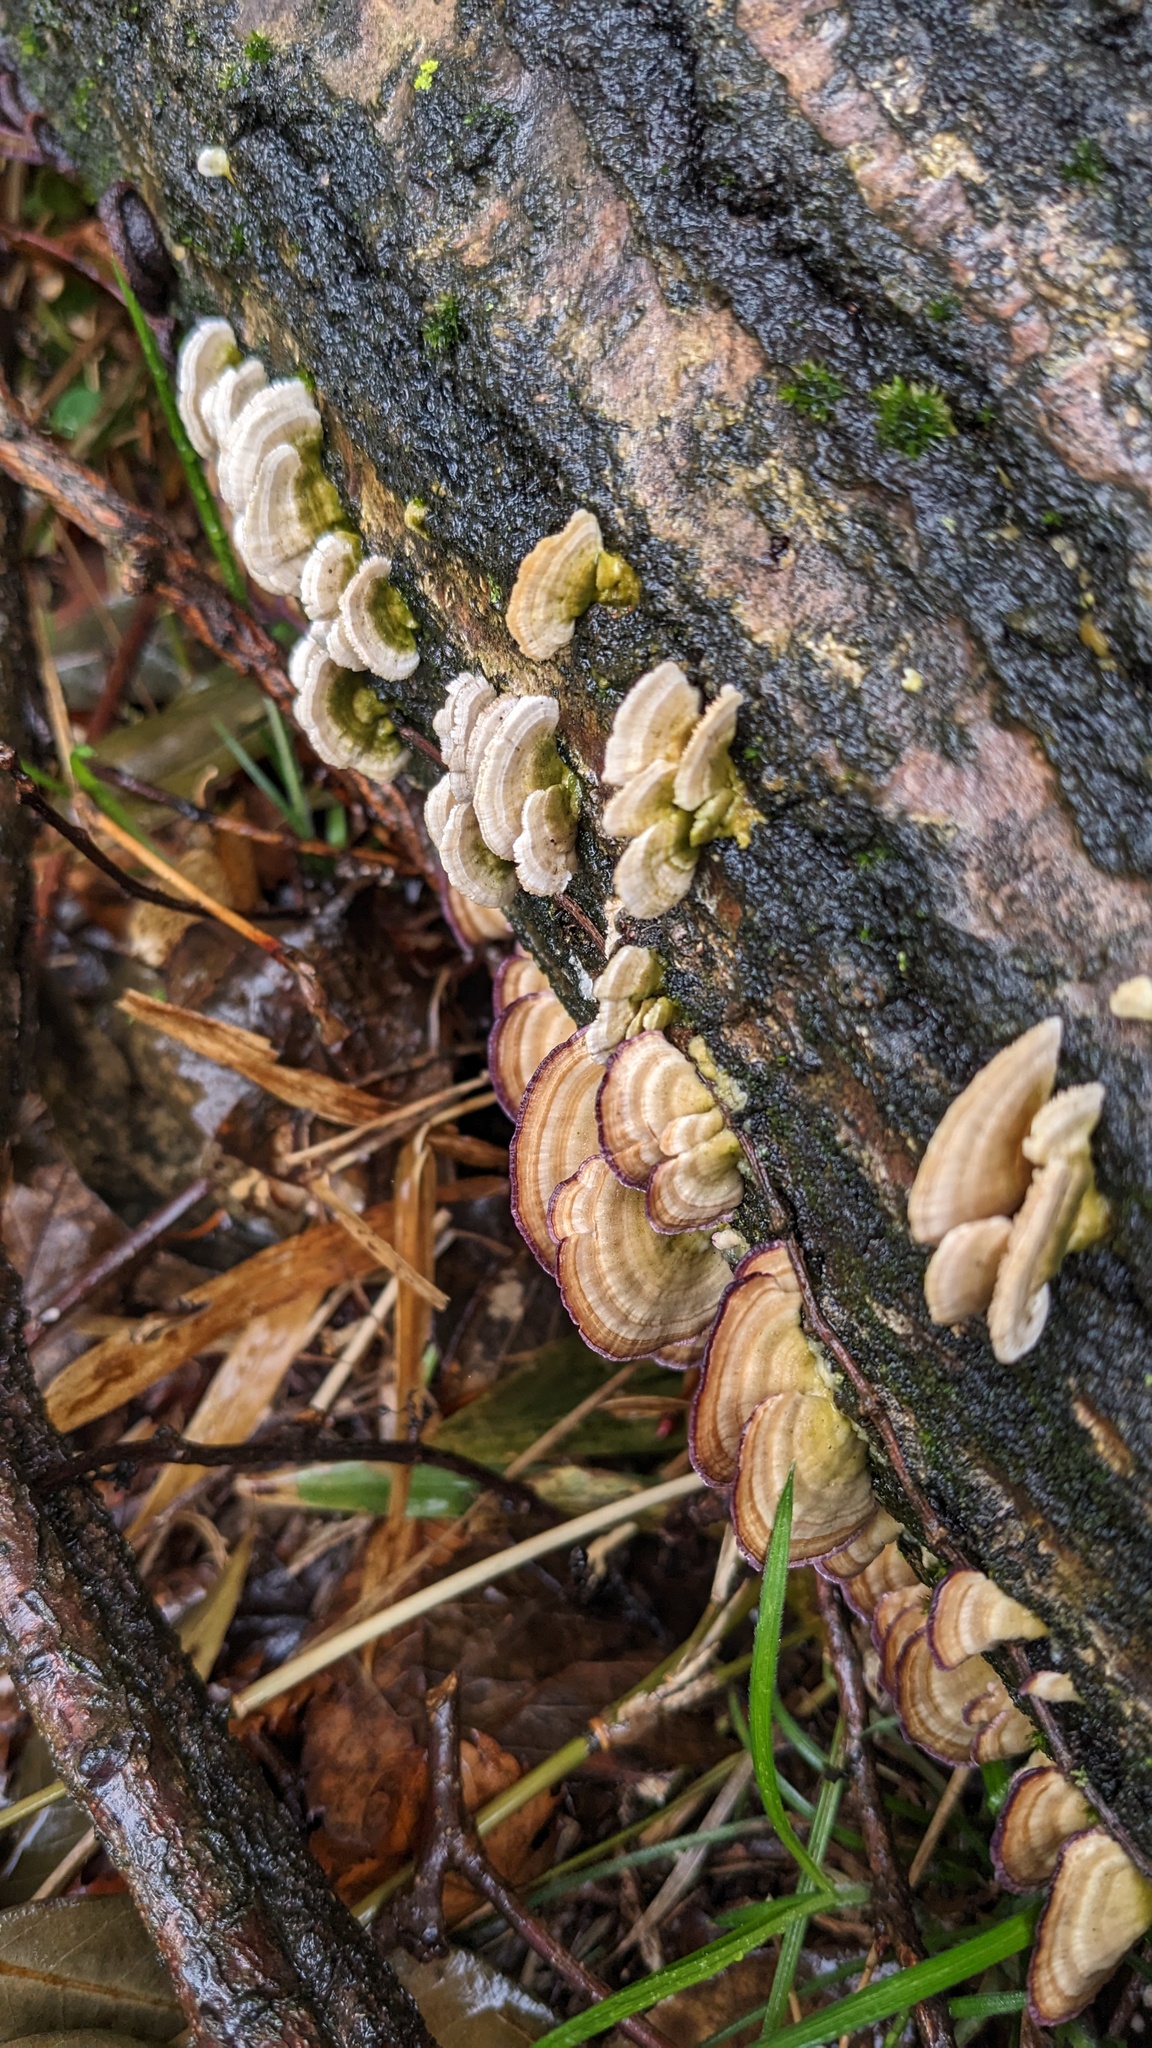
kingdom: Fungi
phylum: Basidiomycota
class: Agaricomycetes
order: Hymenochaetales
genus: Trichaptum
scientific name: Trichaptum biforme
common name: Violet-toothed polypore
